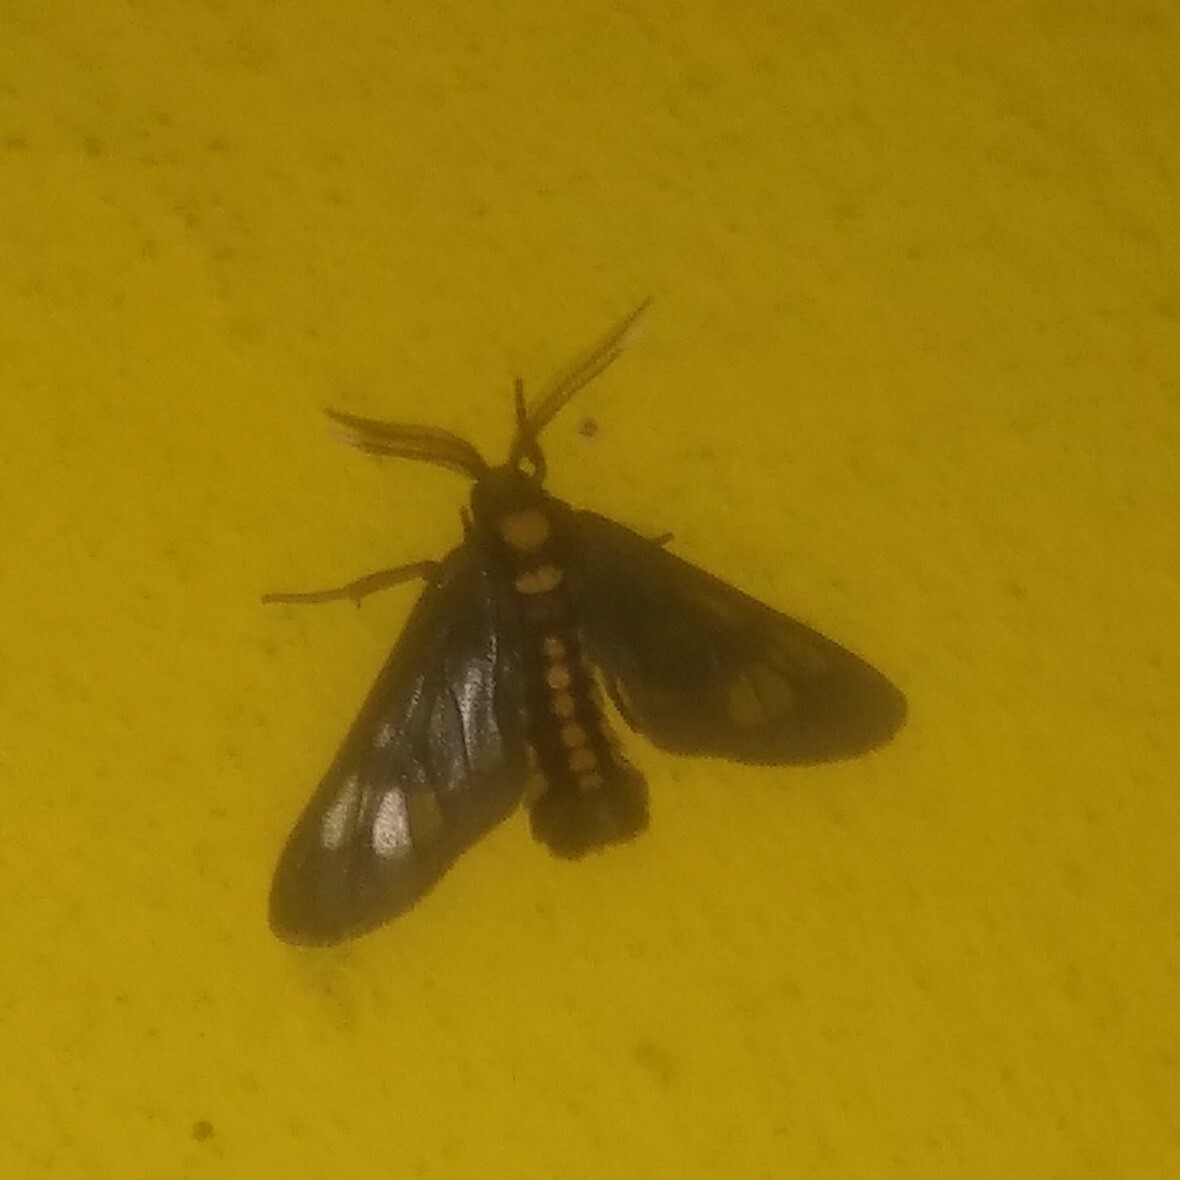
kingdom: Animalia
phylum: Arthropoda
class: Insecta
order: Lepidoptera
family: Erebidae
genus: Eressa
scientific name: Eressa confinis
